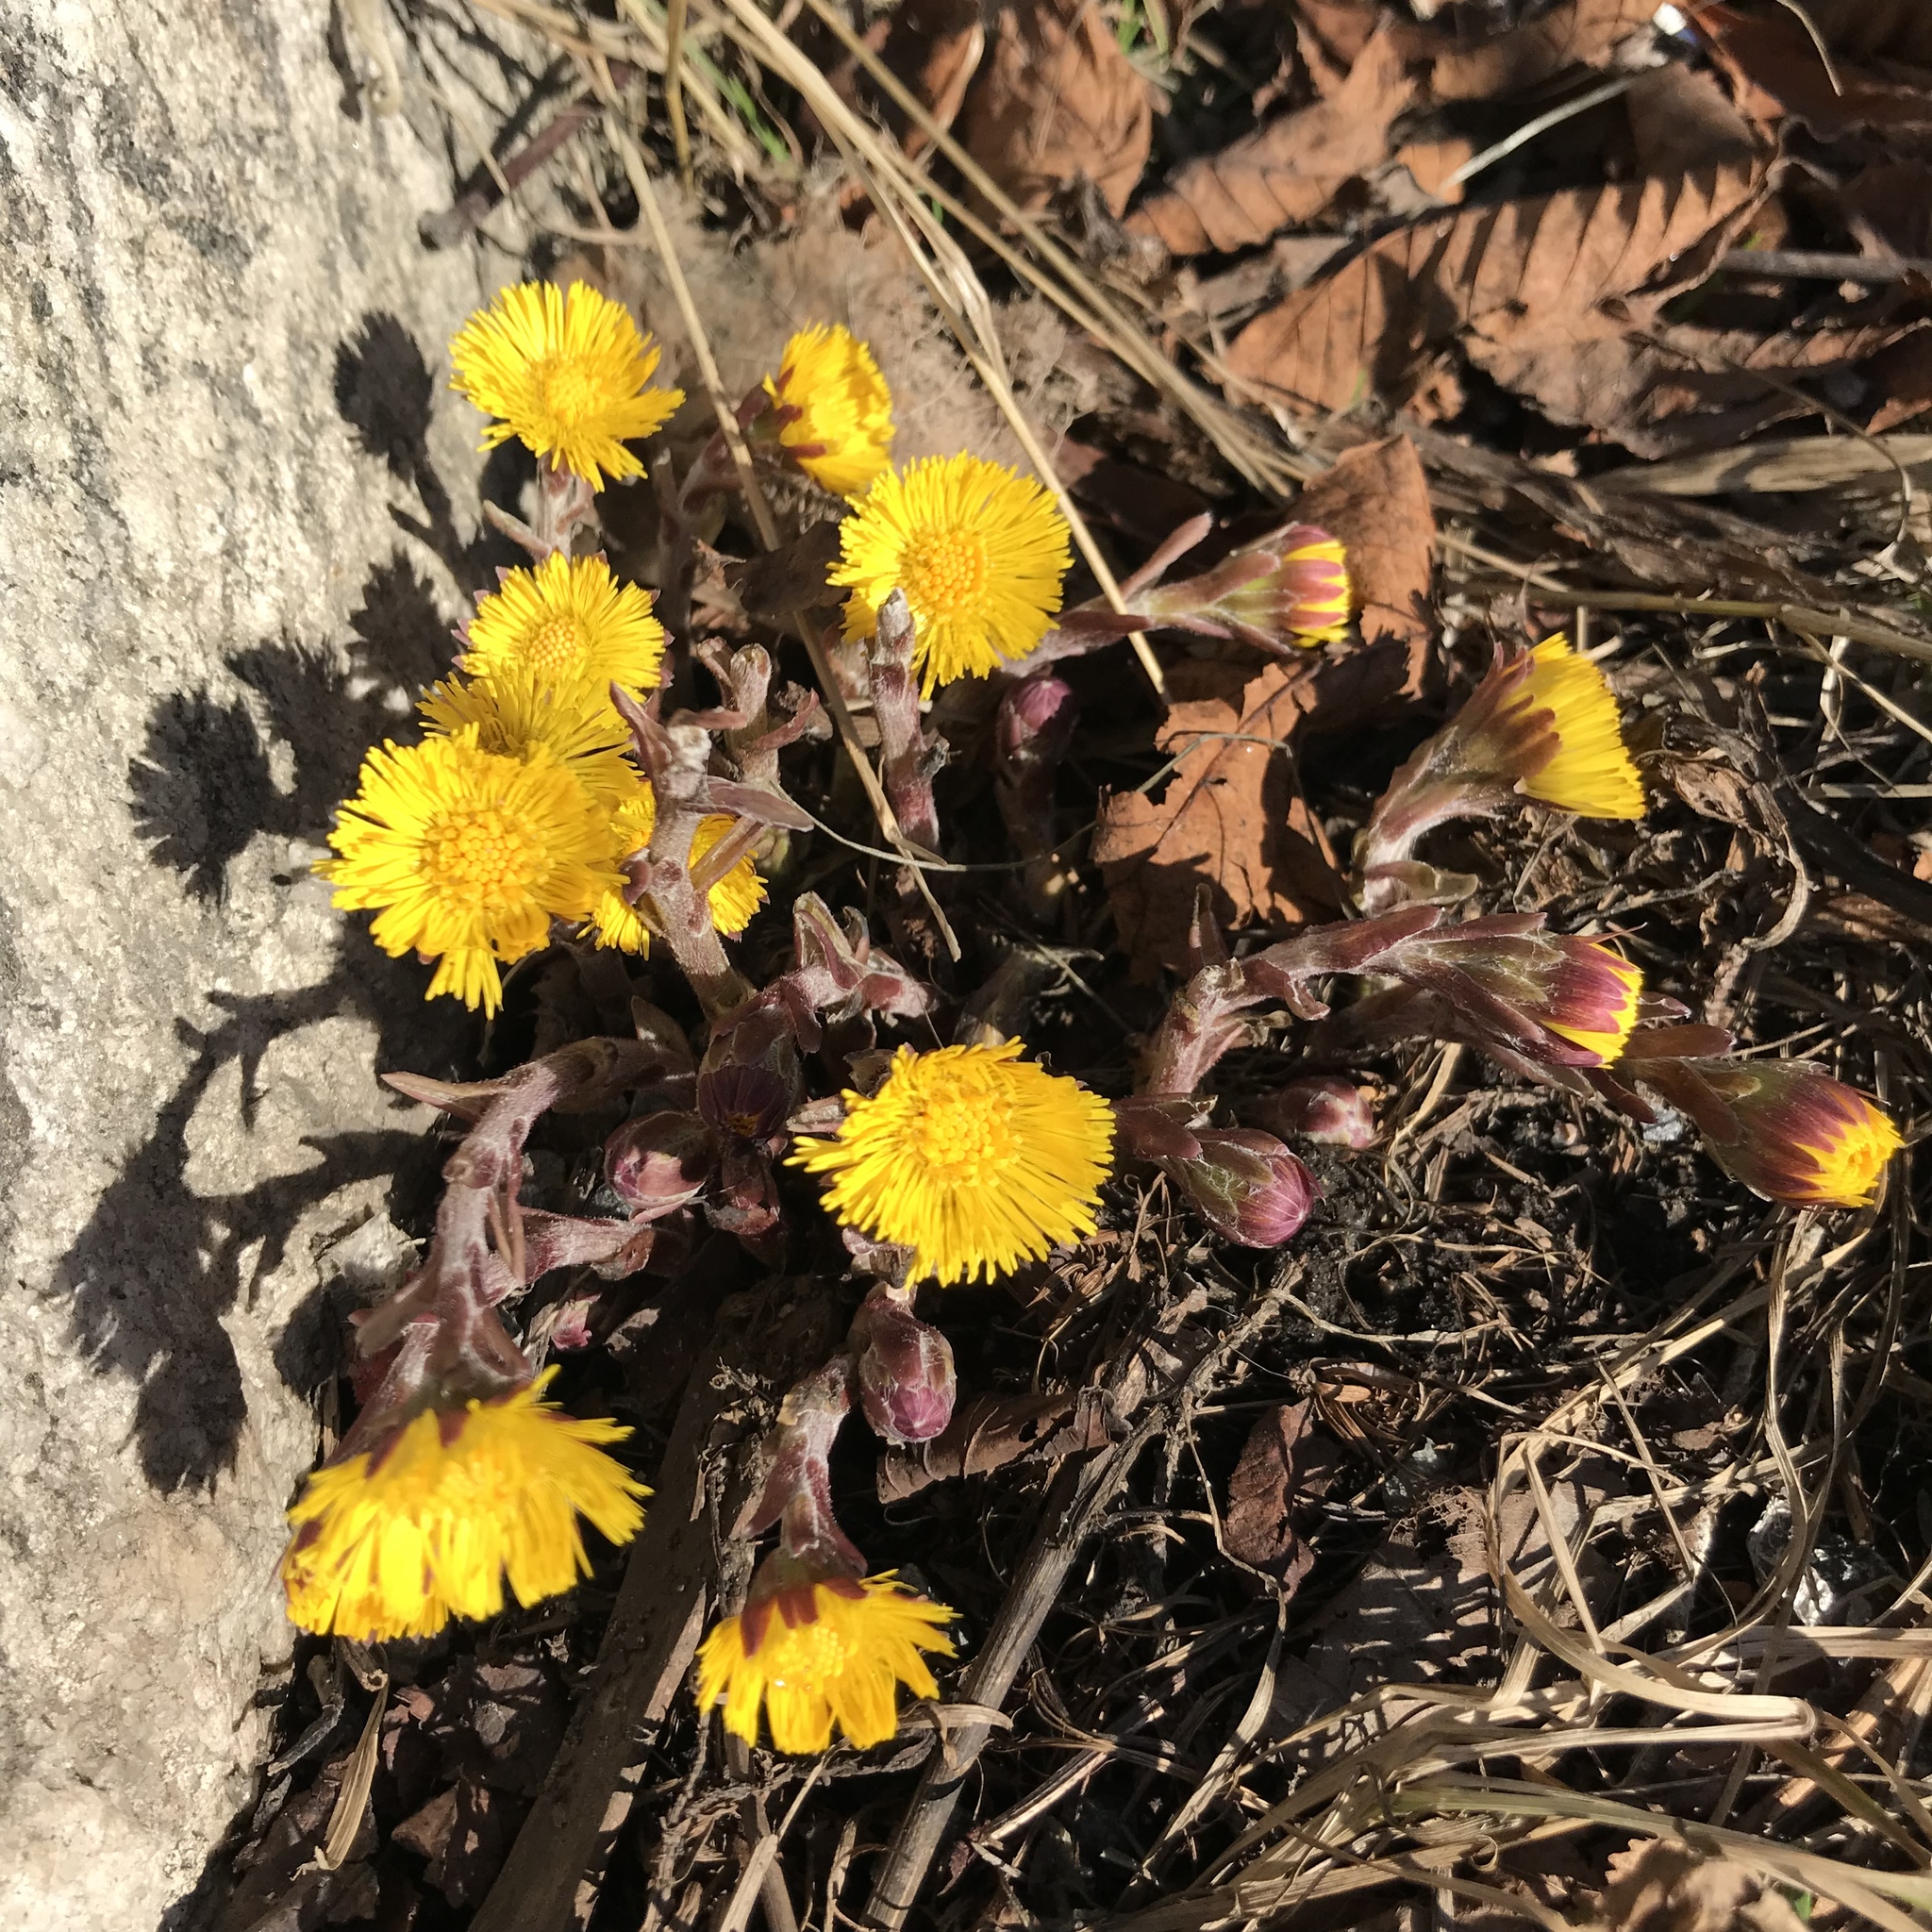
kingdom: Plantae
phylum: Tracheophyta
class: Magnoliopsida
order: Asterales
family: Asteraceae
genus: Tussilago
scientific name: Tussilago farfara
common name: Coltsfoot
